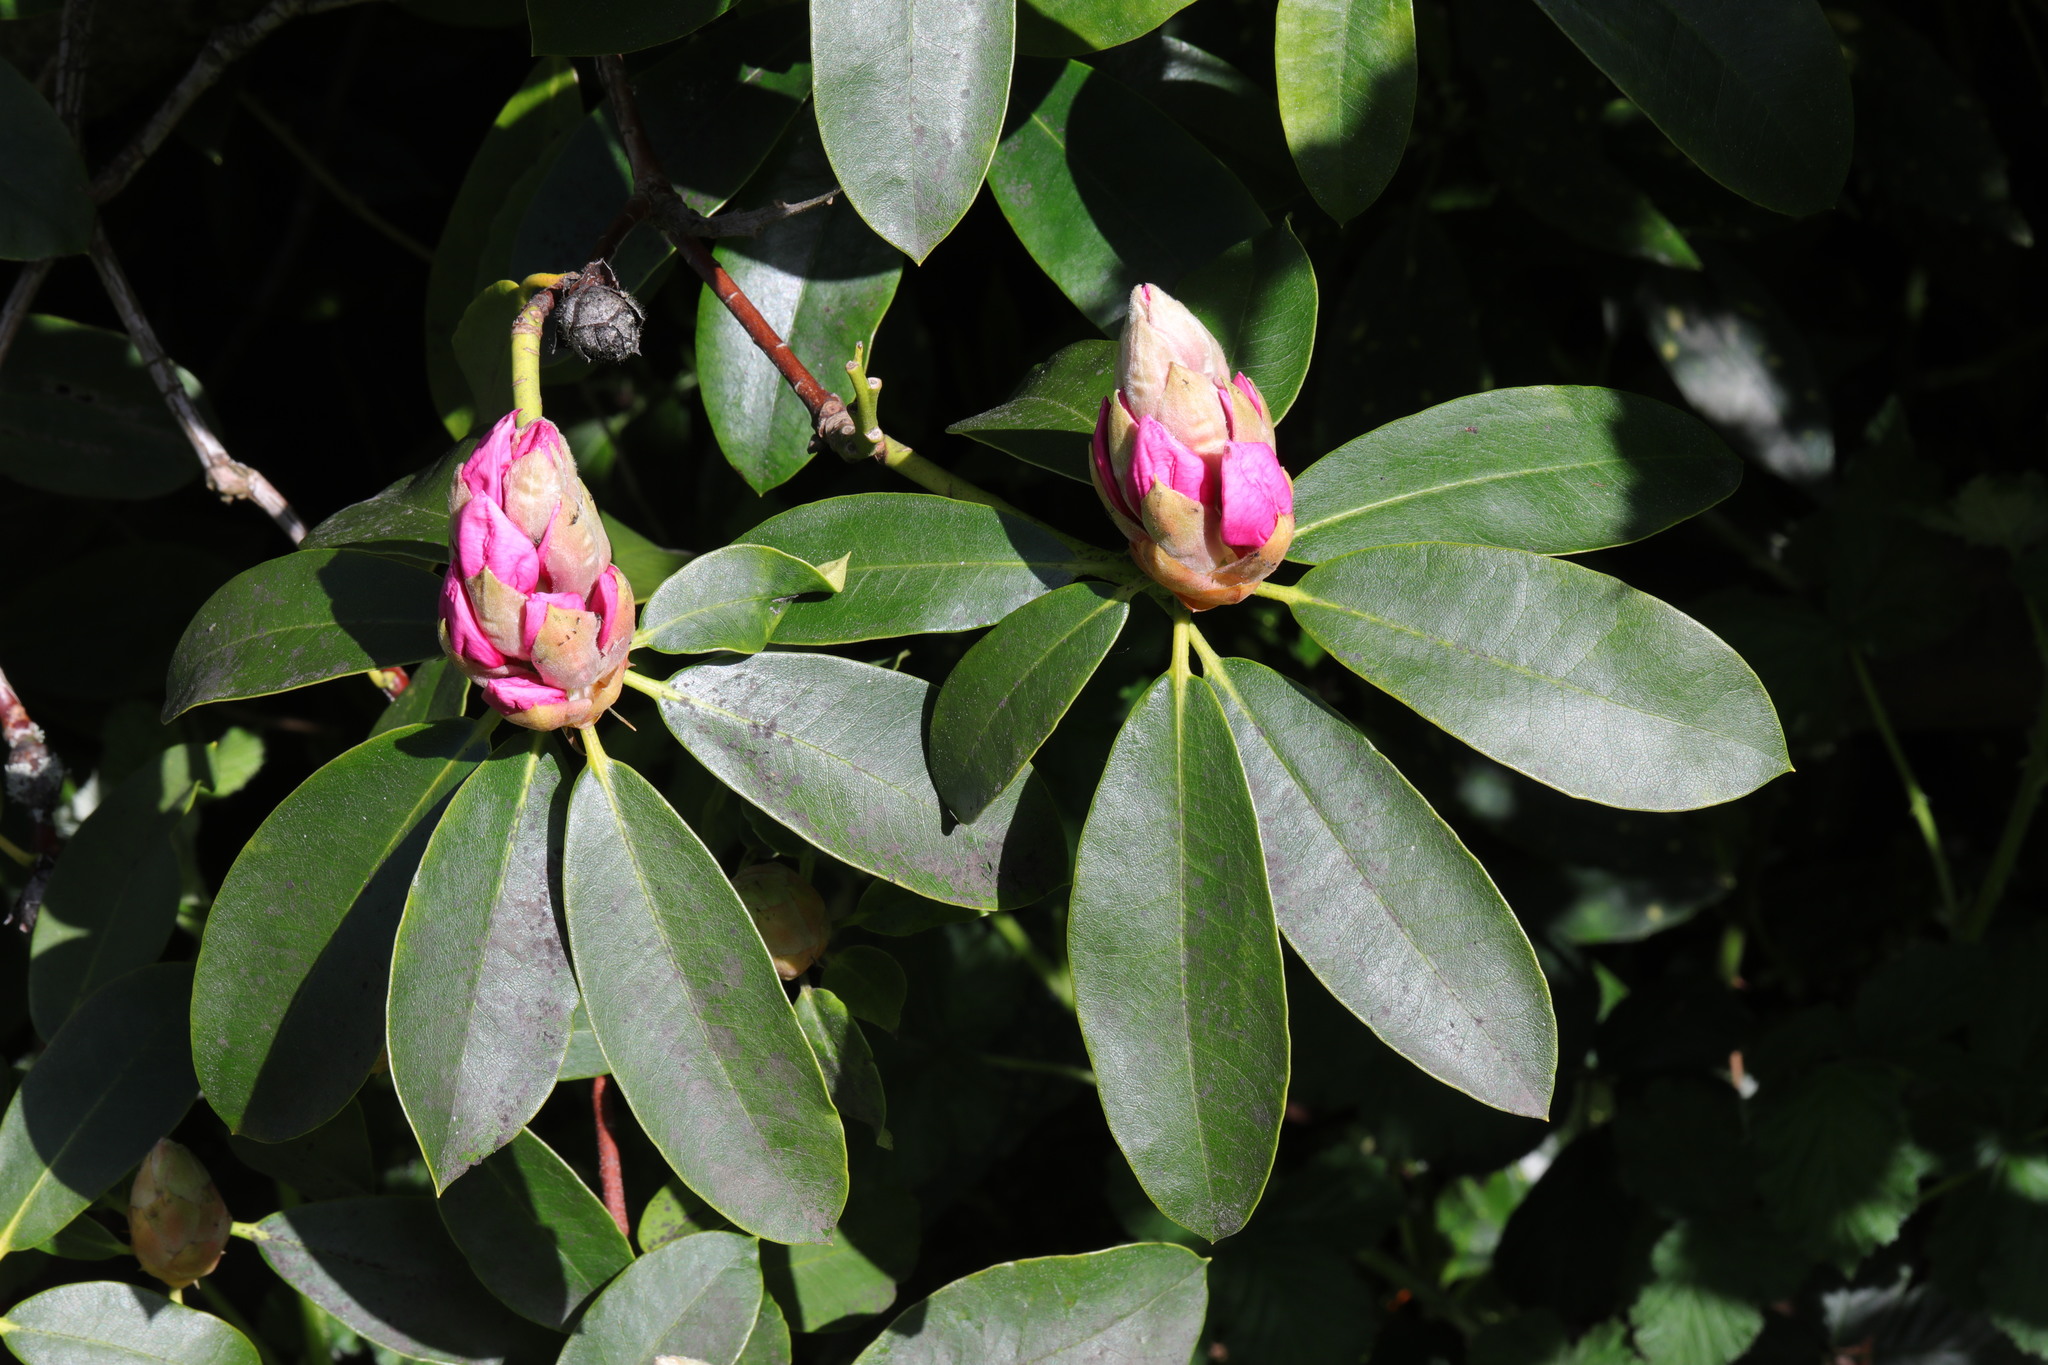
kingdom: Plantae
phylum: Tracheophyta
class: Magnoliopsida
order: Ericales
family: Ericaceae
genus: Rhododendron
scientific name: Rhododendron ponticum
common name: Rhododendron
